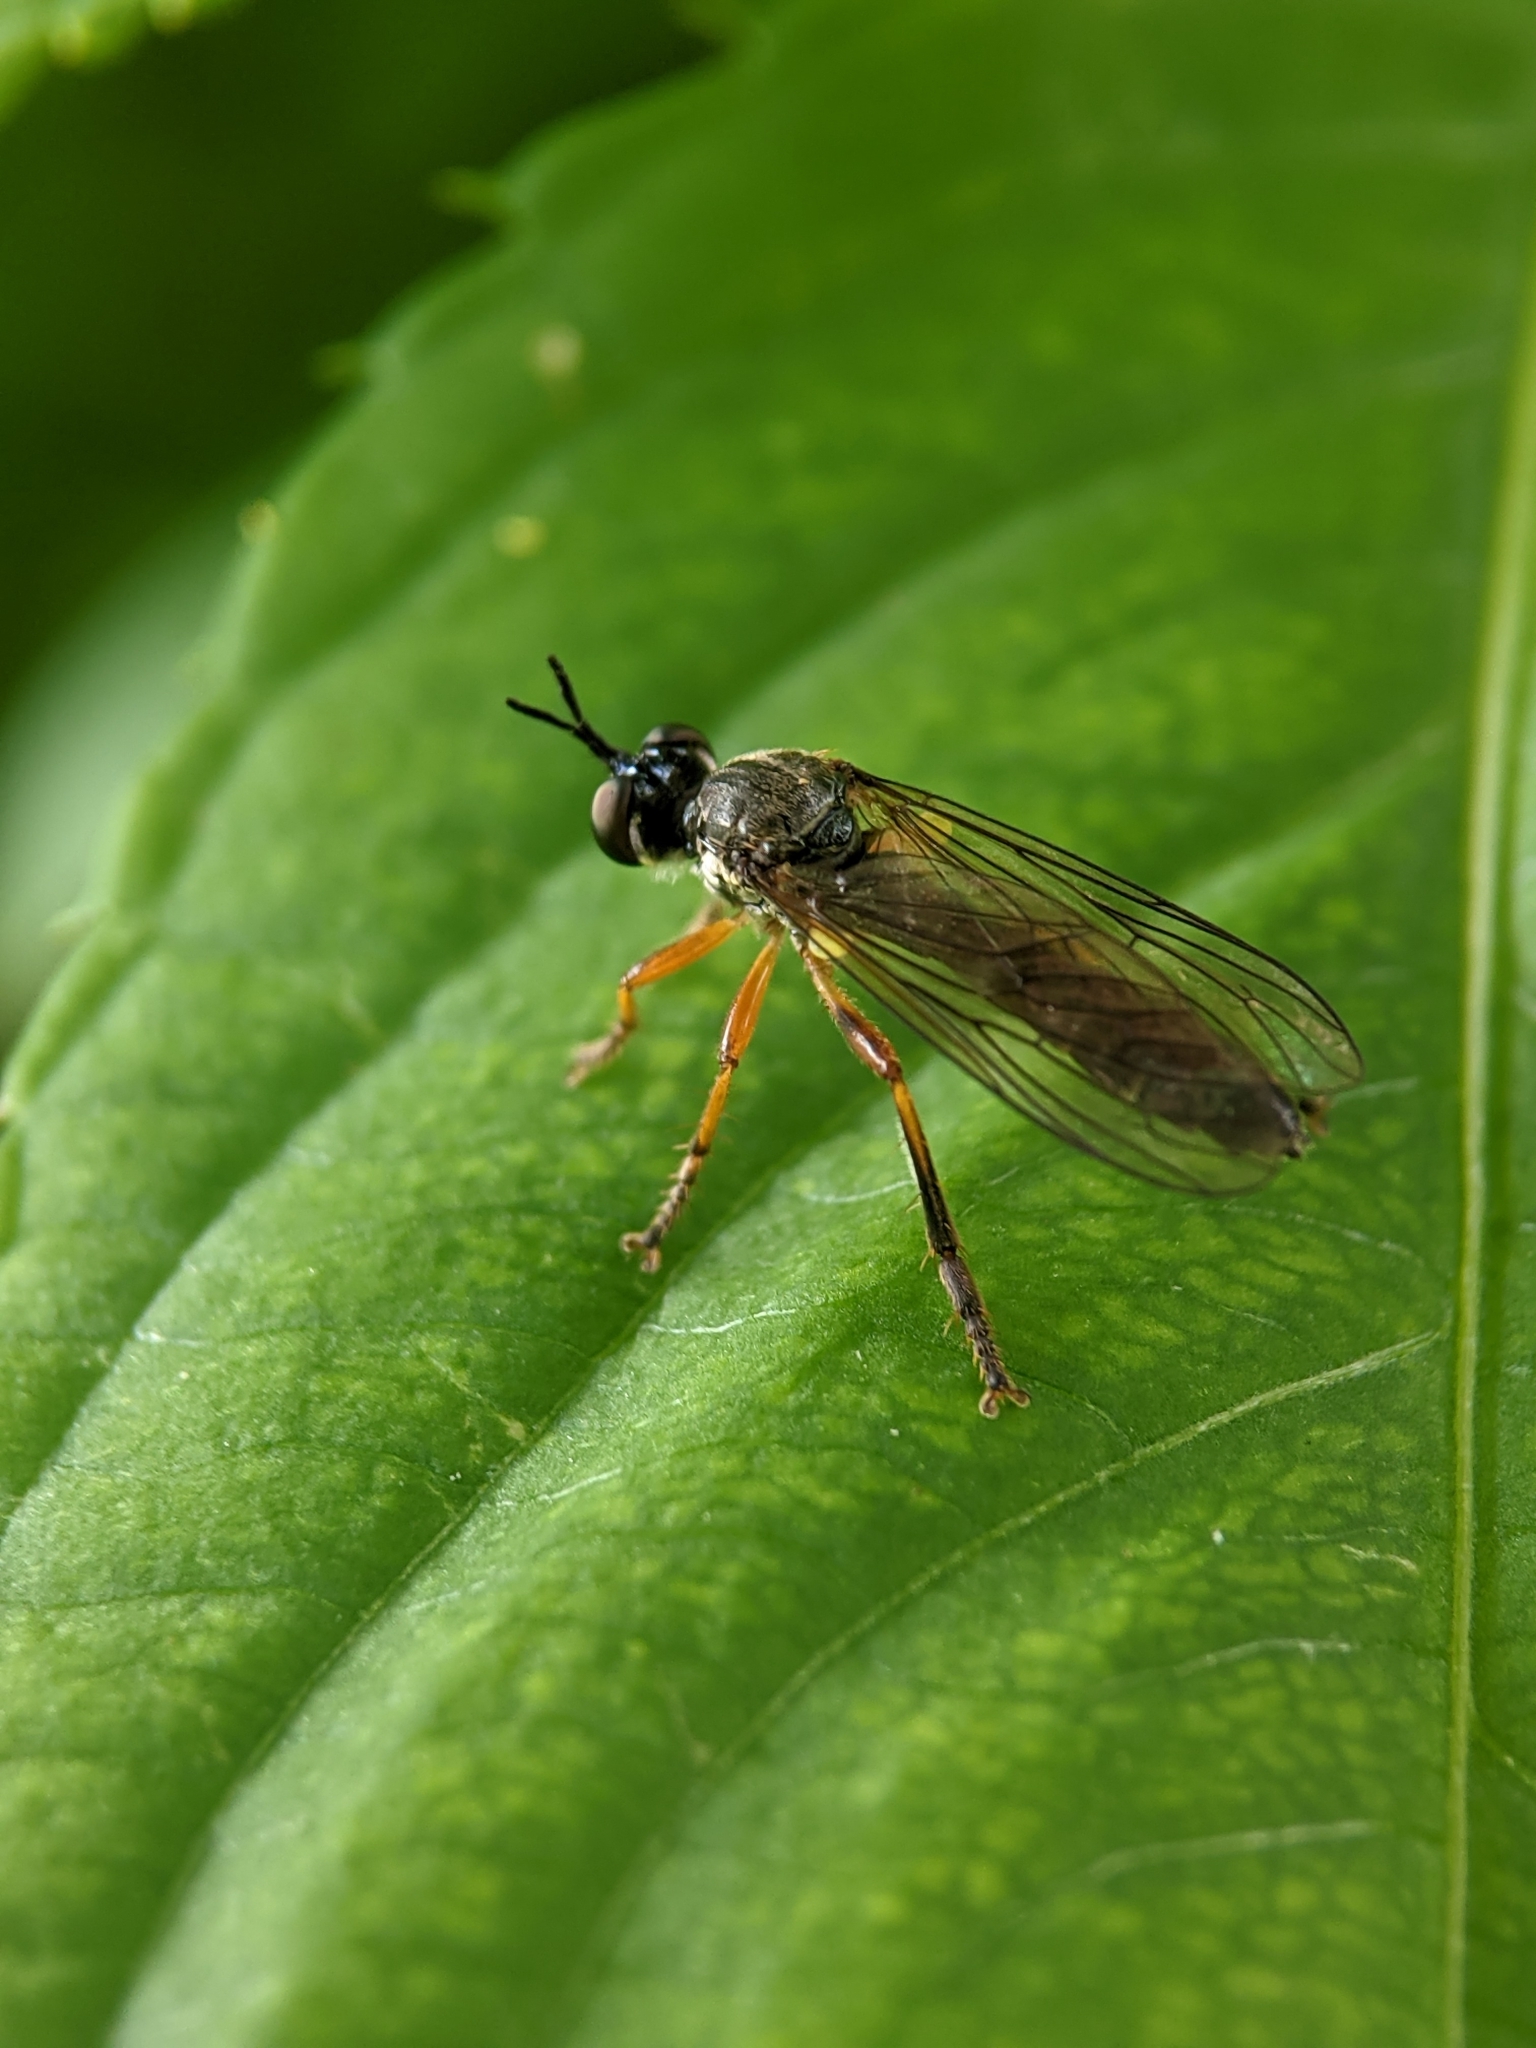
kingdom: Animalia
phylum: Arthropoda
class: Insecta
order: Diptera
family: Asilidae
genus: Dioctria
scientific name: Dioctria hyalipennis
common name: Stripe-legged robberfly
